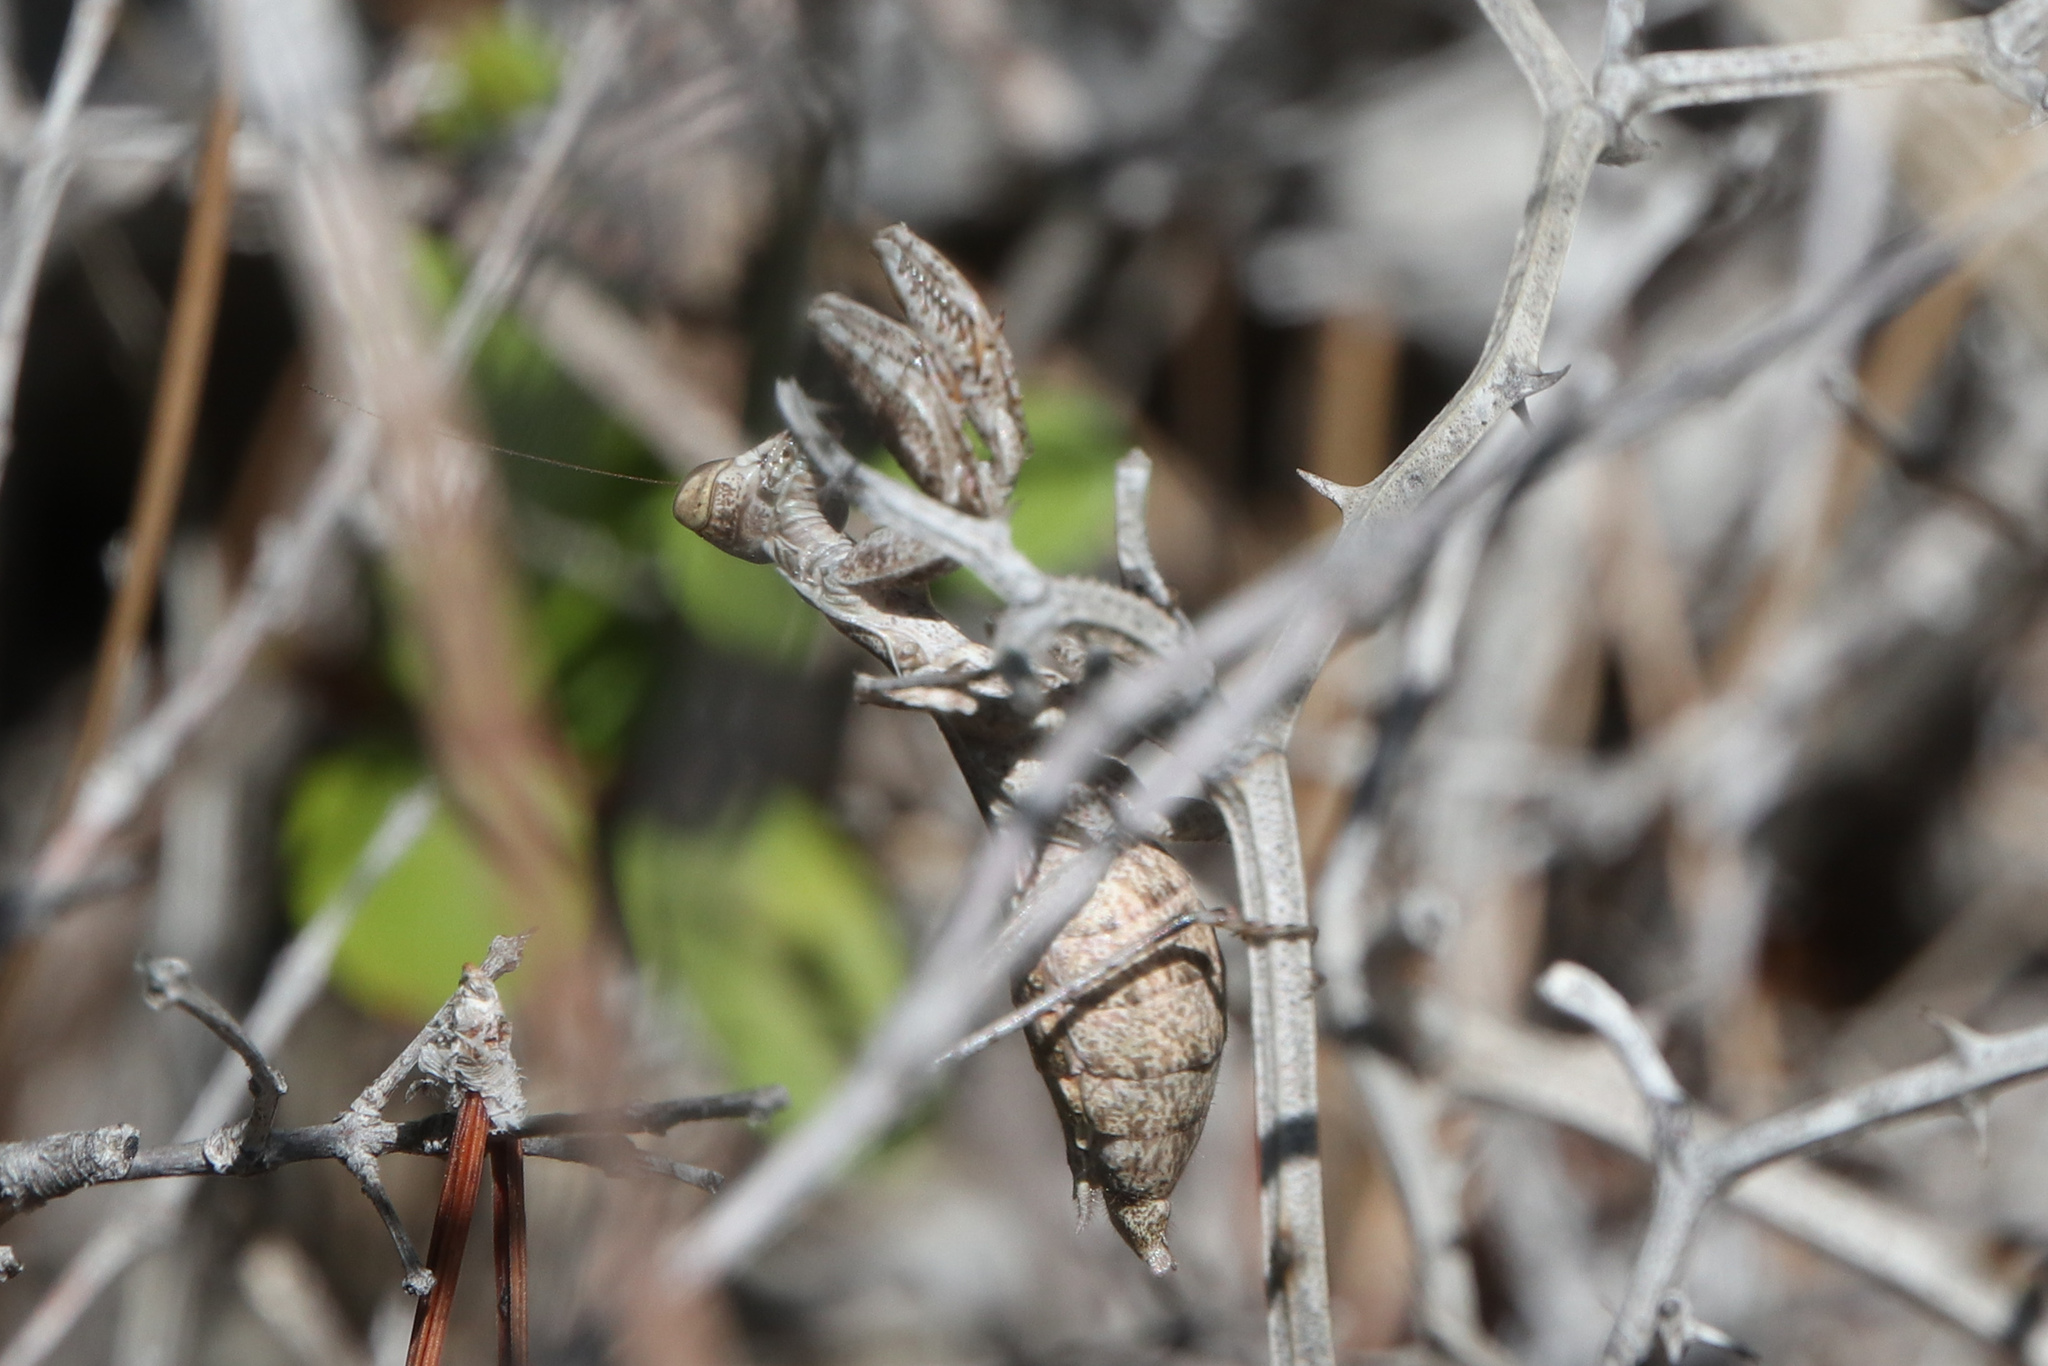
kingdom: Animalia
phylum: Arthropoda
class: Insecta
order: Mantodea
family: Amelidae
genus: Ameles
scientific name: Ameles spallanzania
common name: European dwarf mantis
